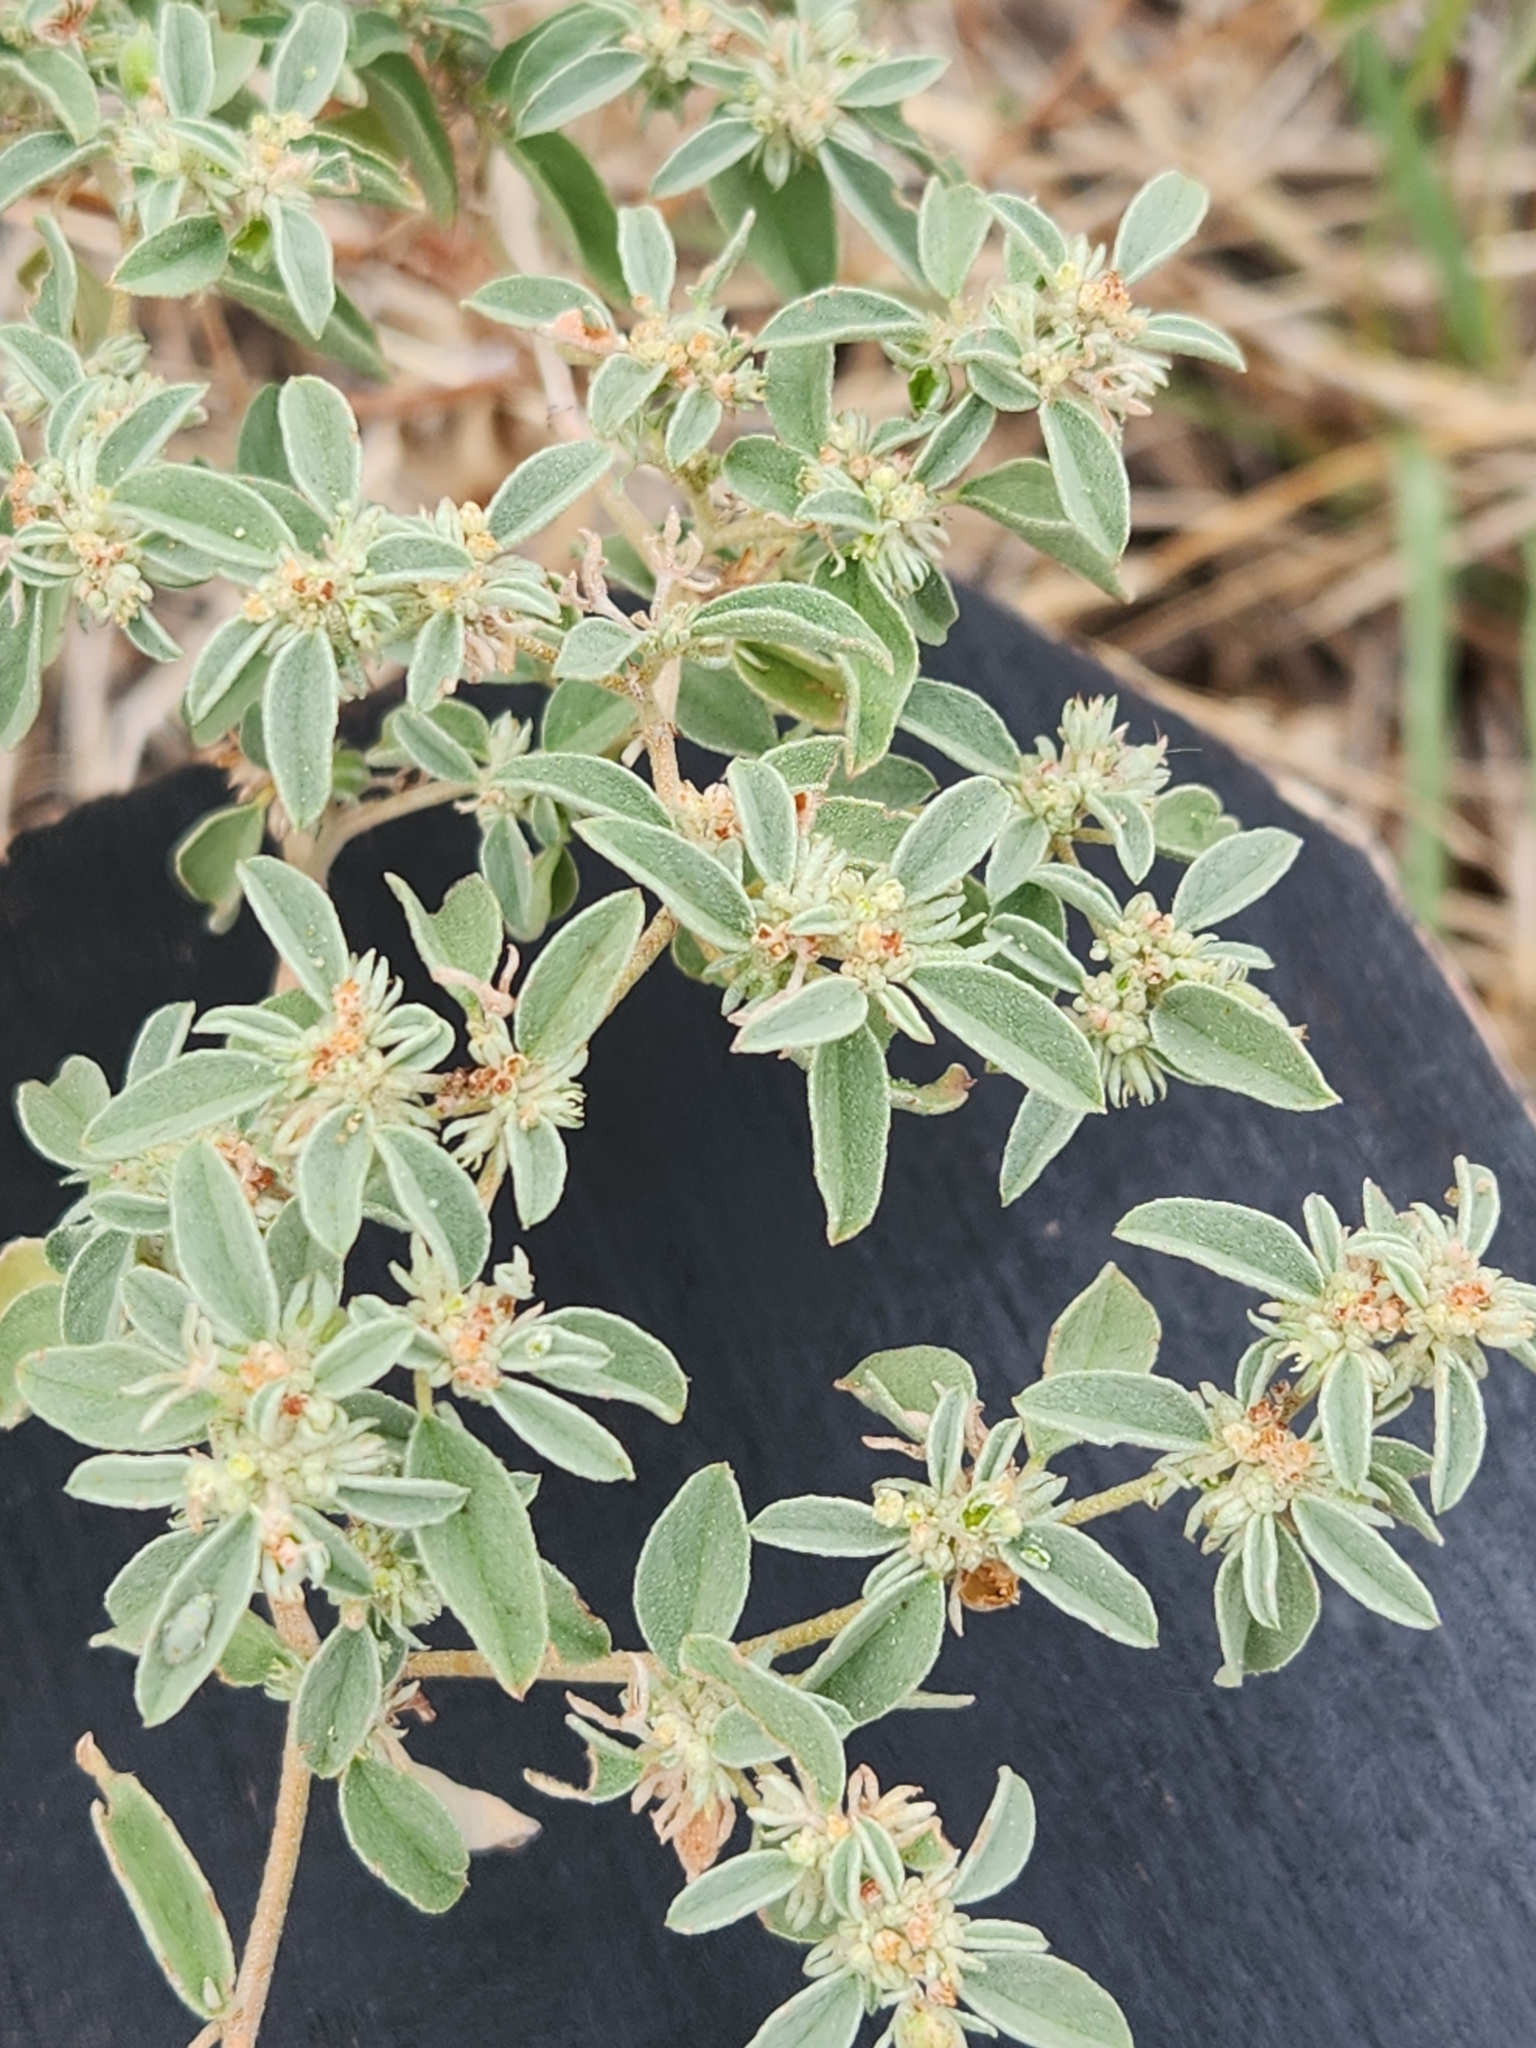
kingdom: Plantae
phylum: Tracheophyta
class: Magnoliopsida
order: Malpighiales
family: Euphorbiaceae
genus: Croton
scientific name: Croton monanthogynus
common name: One-seed croton
